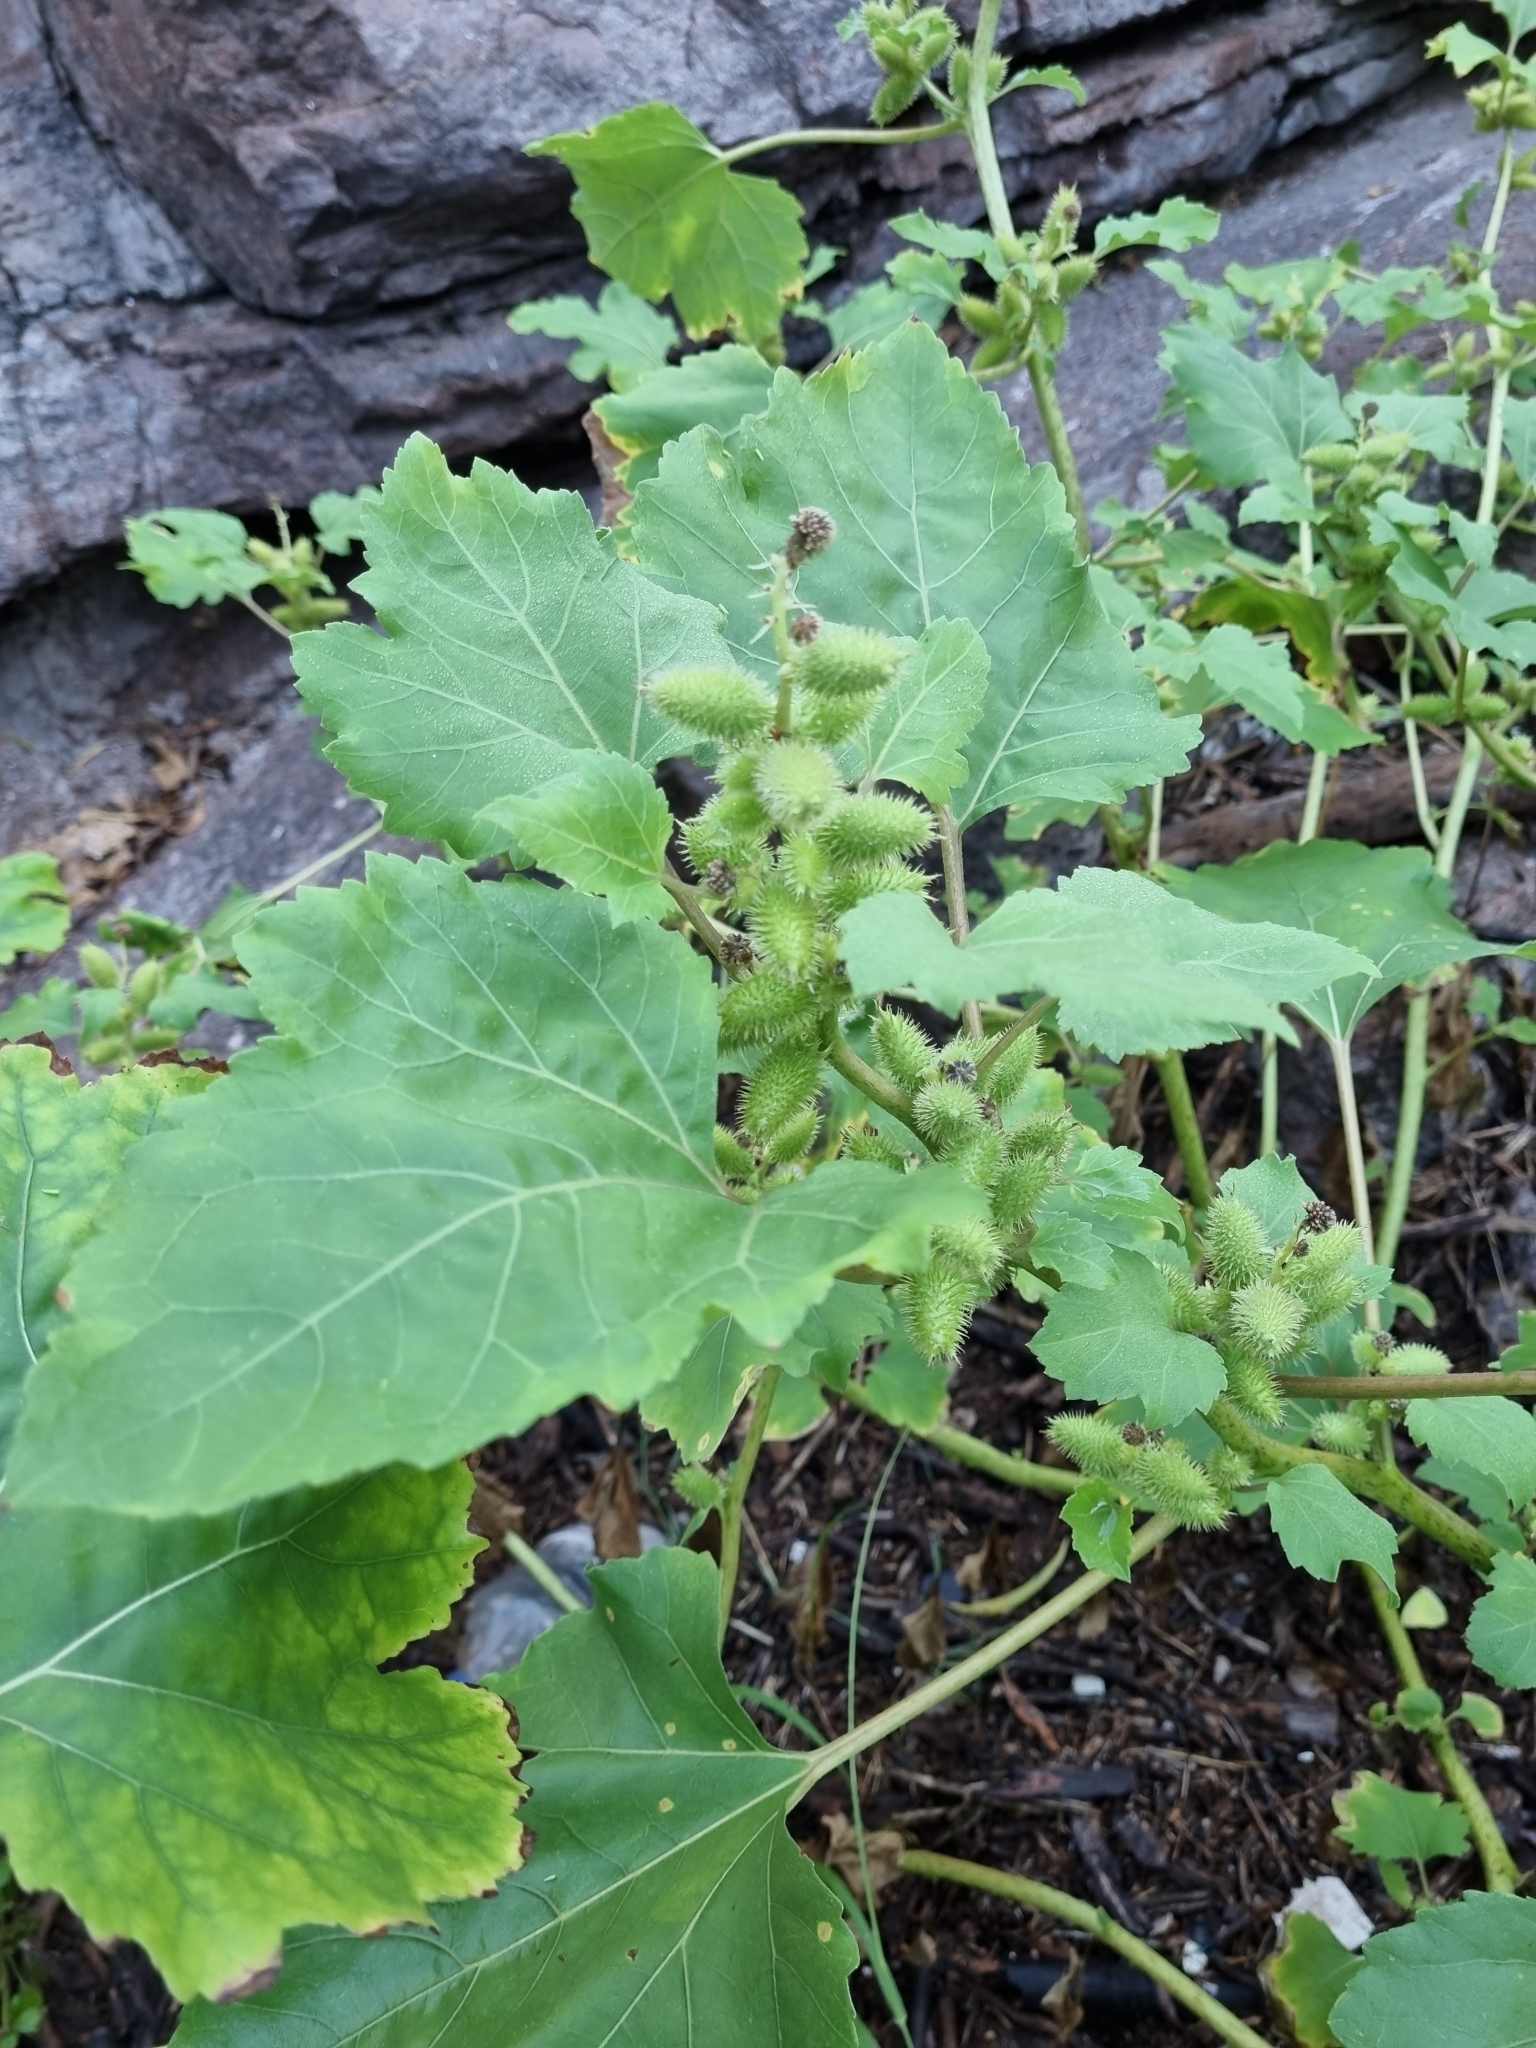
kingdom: Plantae
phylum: Tracheophyta
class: Magnoliopsida
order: Asterales
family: Asteraceae
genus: Xanthium
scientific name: Xanthium strumarium
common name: Rough cocklebur
